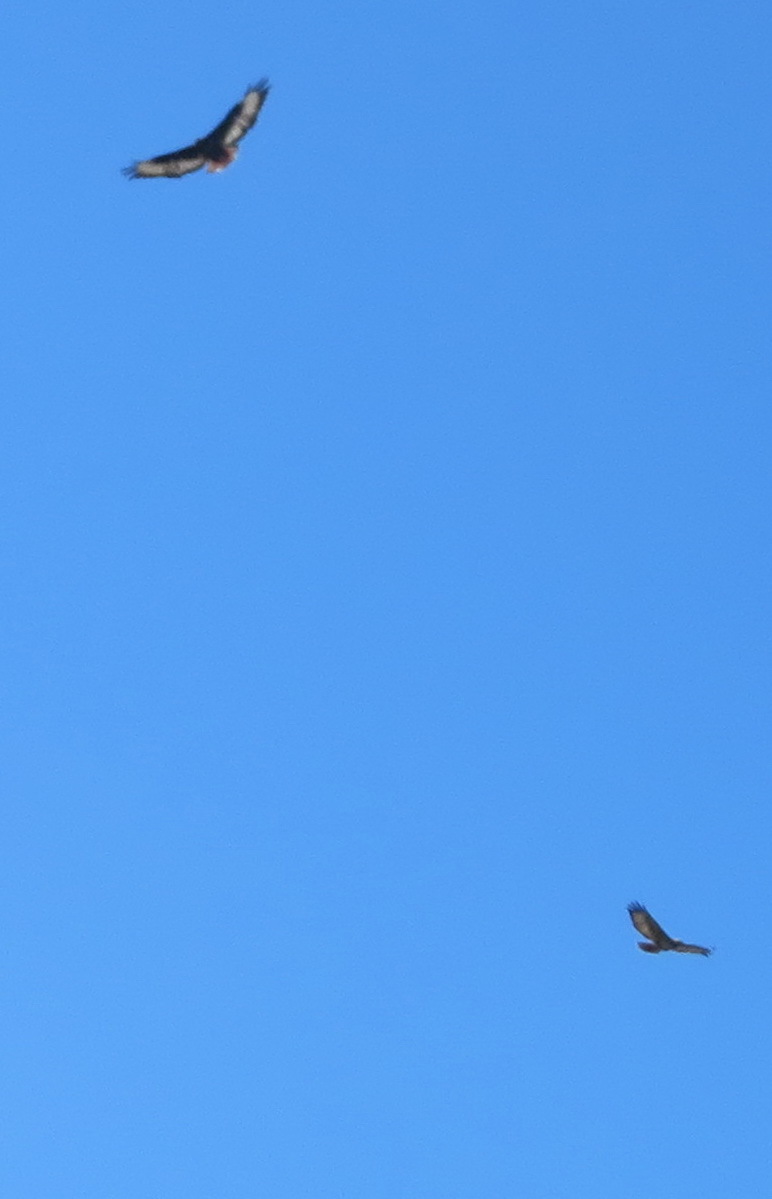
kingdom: Animalia
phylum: Chordata
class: Aves
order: Accipitriformes
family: Accipitridae
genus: Buteo
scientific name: Buteo rufofuscus
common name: Jackal buzzard
